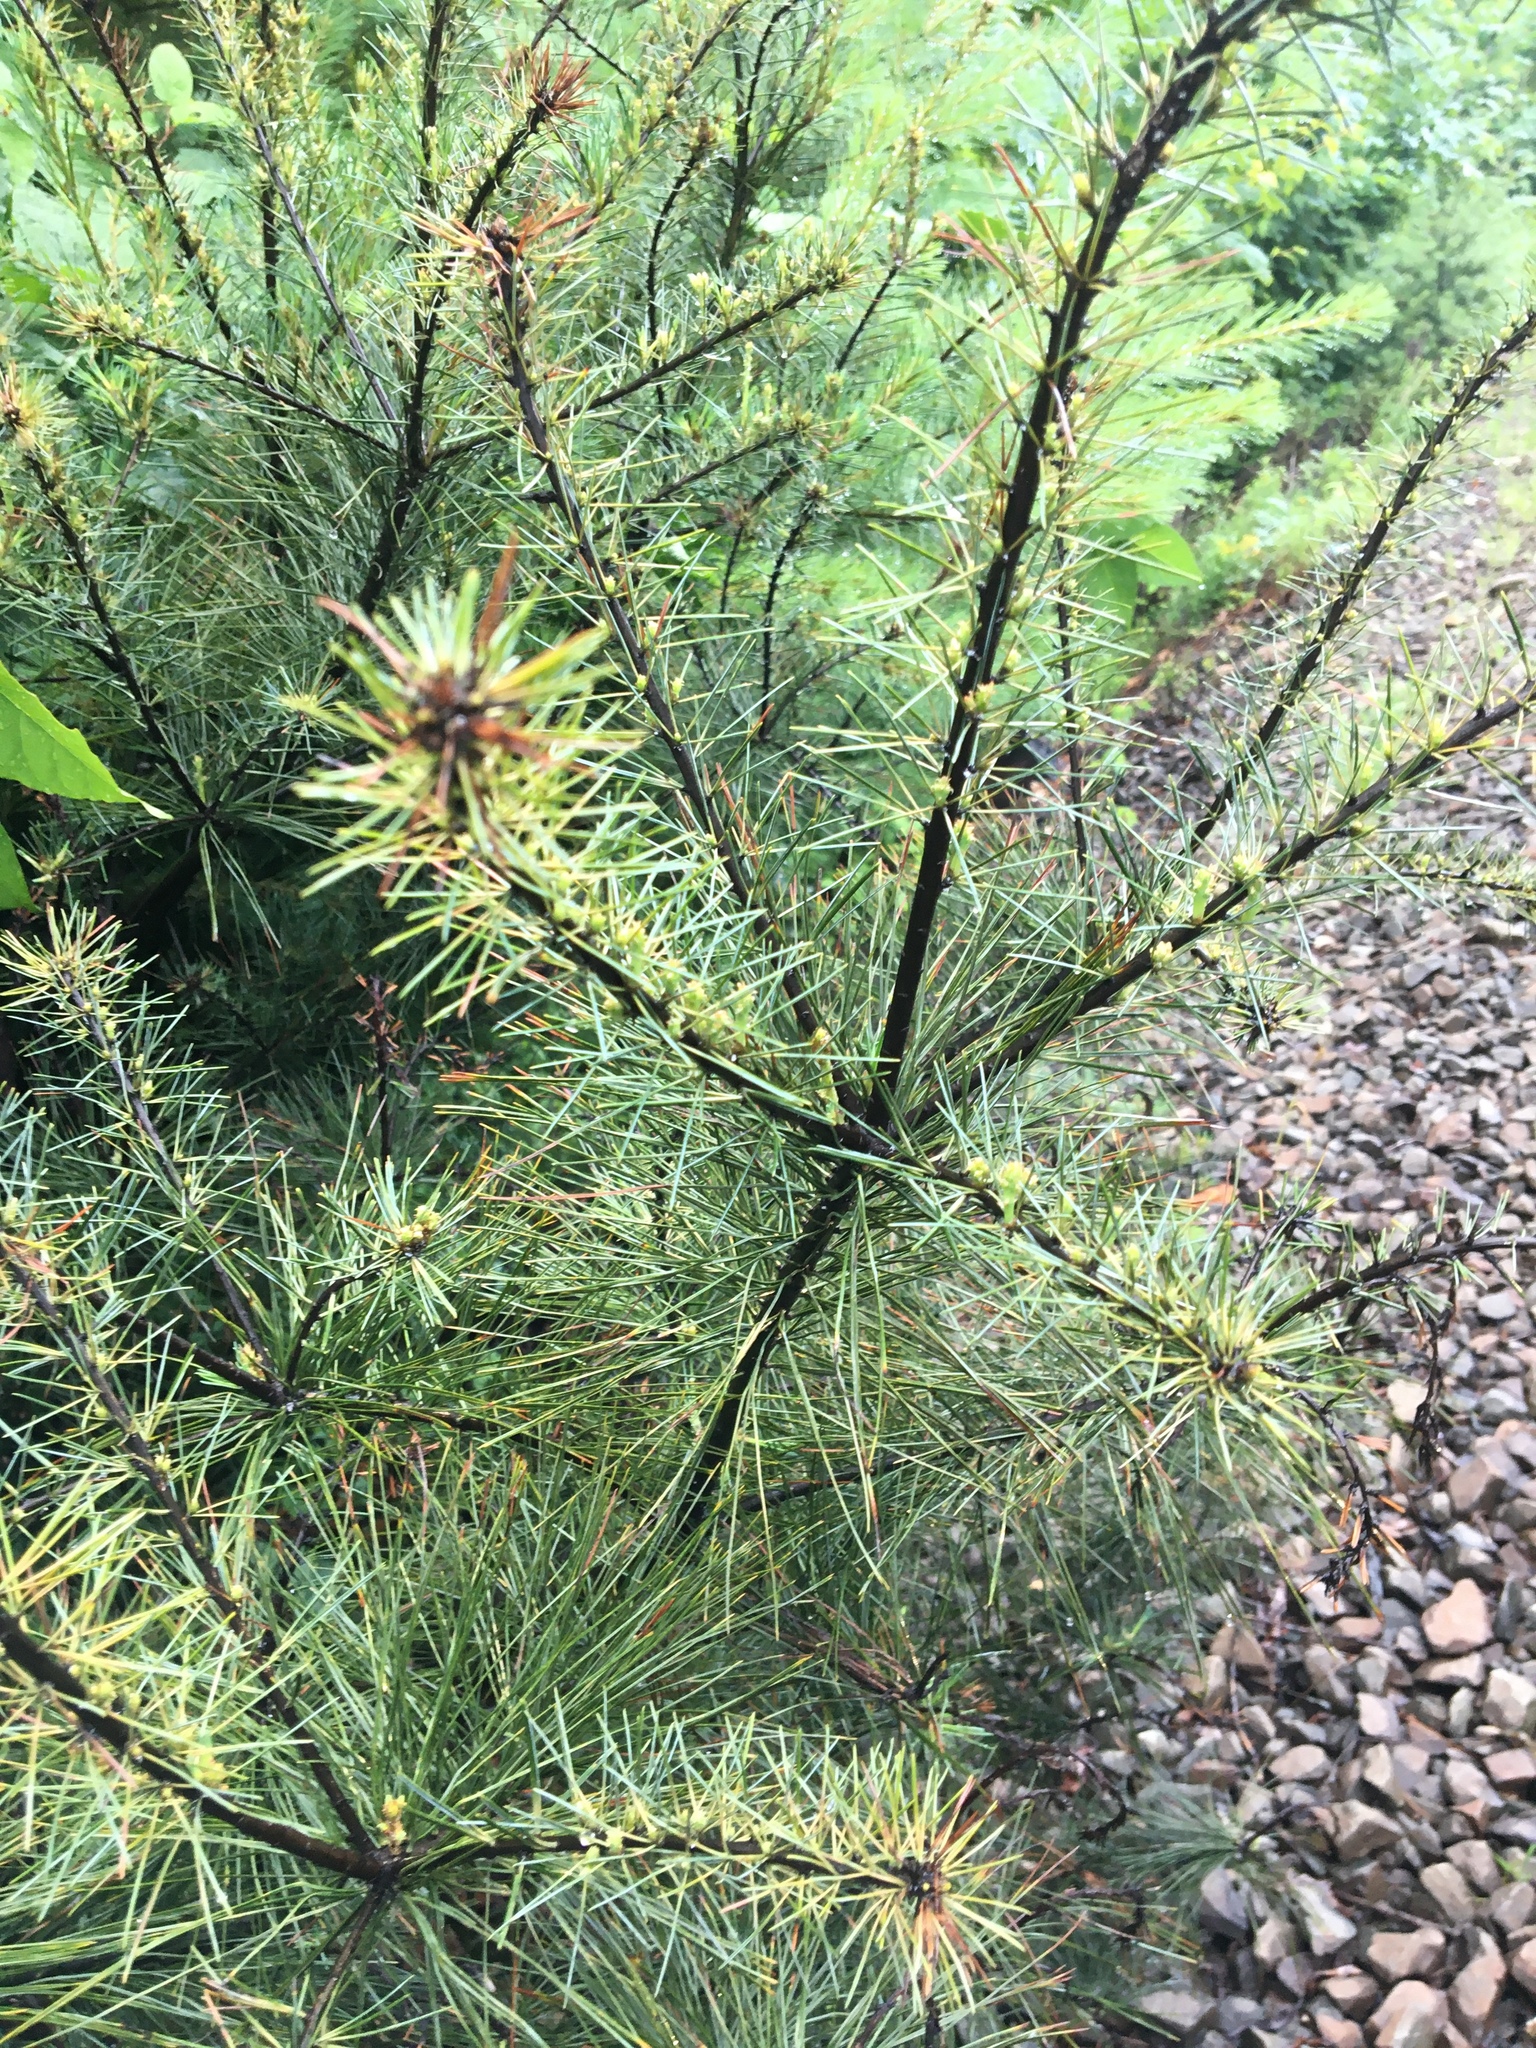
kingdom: Plantae
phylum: Tracheophyta
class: Pinopsida
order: Pinales
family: Pinaceae
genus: Pinus
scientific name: Pinus strobus
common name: Weymouth pine
